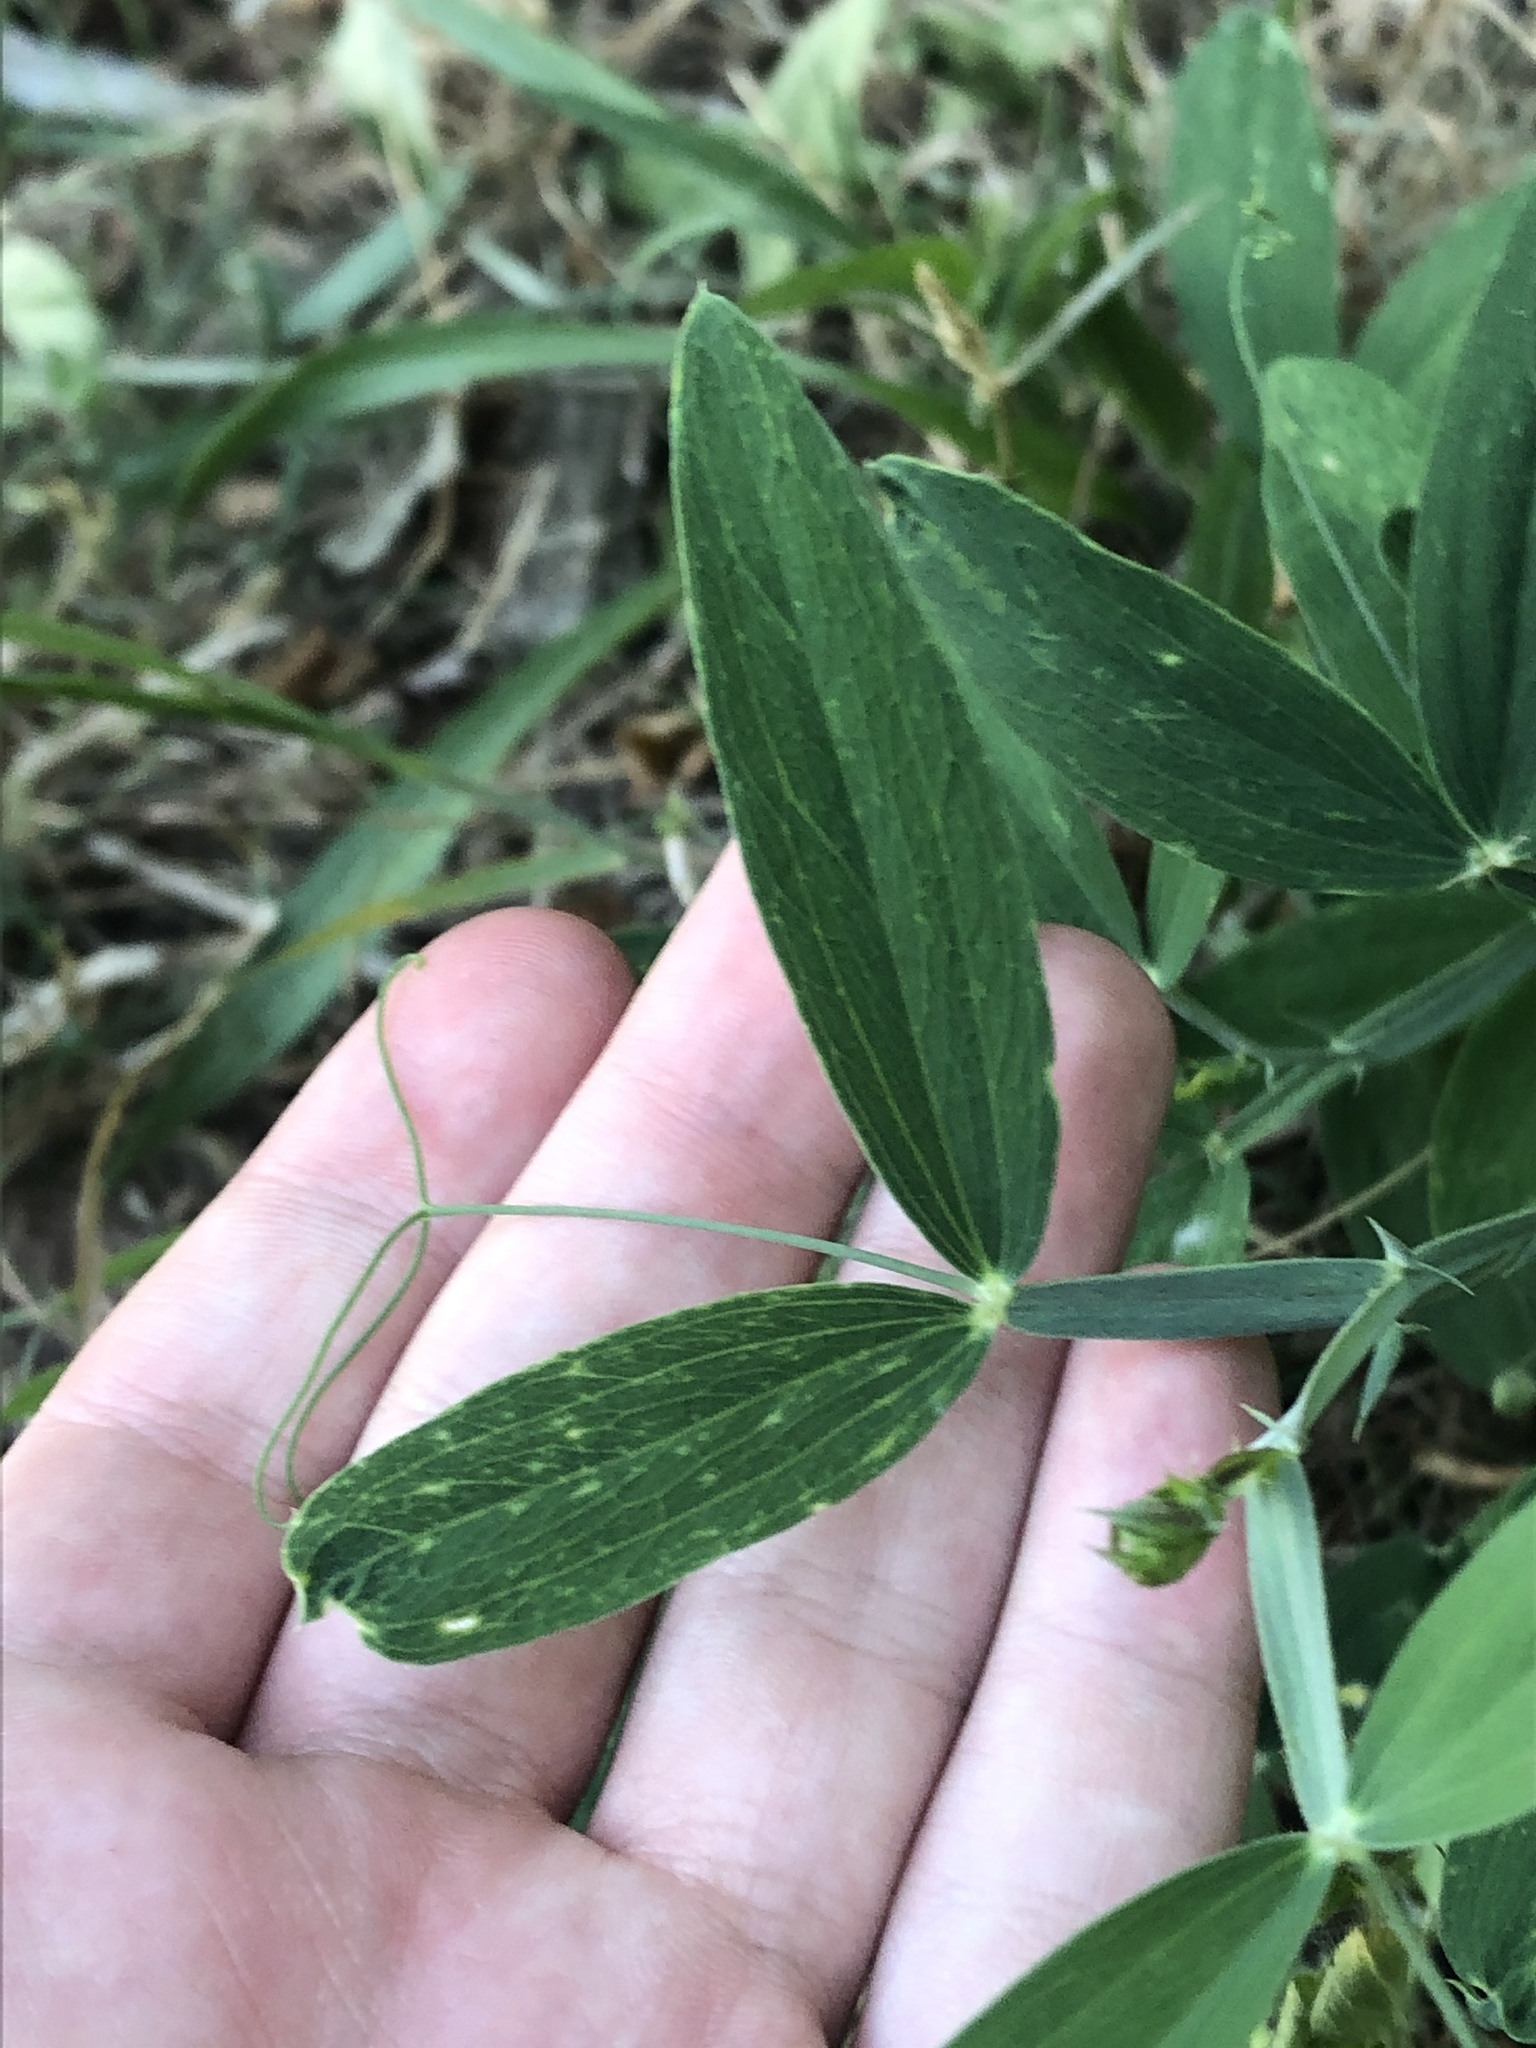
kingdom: Plantae
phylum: Tracheophyta
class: Magnoliopsida
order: Fabales
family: Fabaceae
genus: Lathyrus
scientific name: Lathyrus latifolius
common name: Perennial pea
